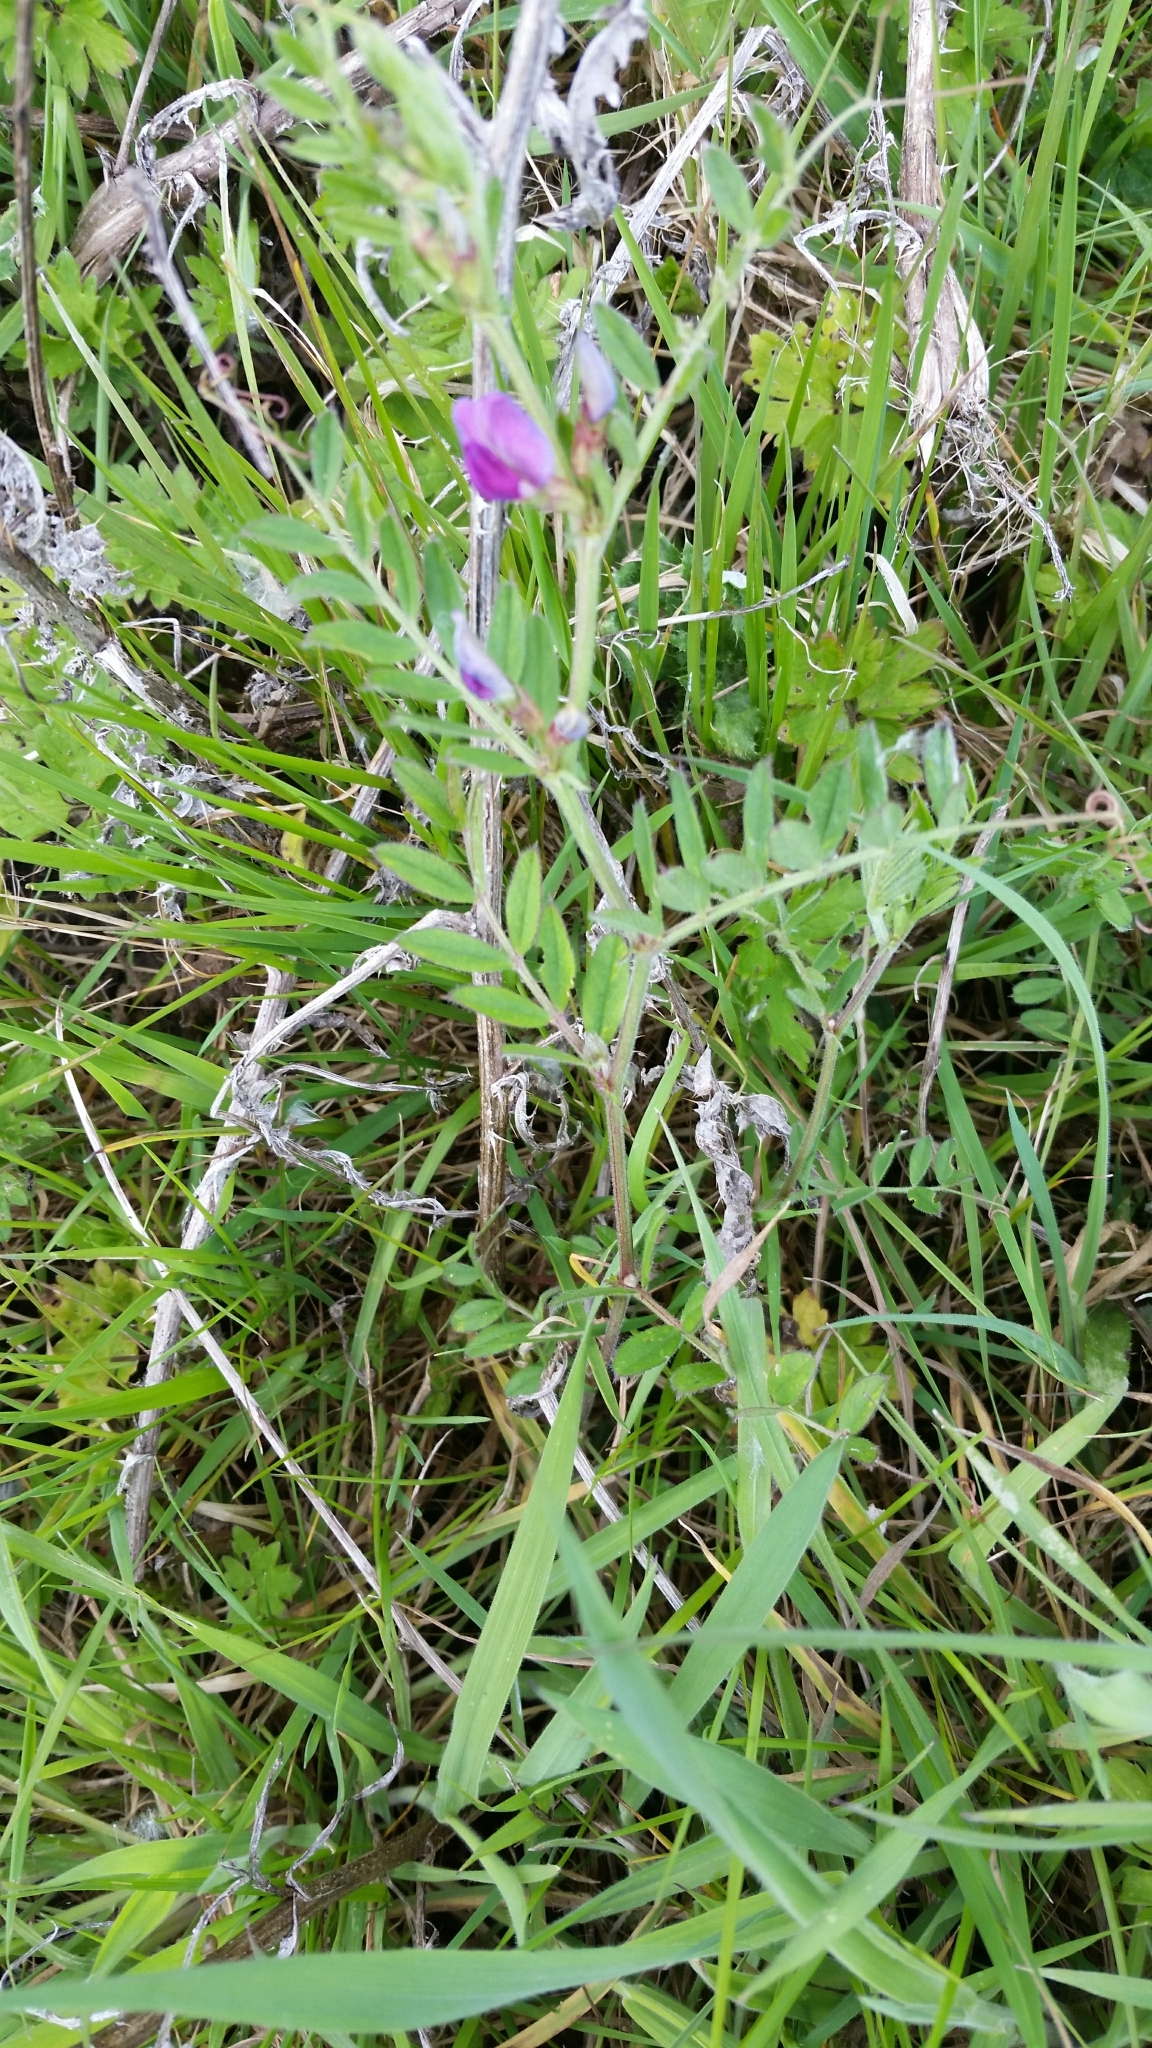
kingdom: Plantae
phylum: Tracheophyta
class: Magnoliopsida
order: Fabales
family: Fabaceae
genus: Vicia
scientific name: Vicia sativa
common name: Garden vetch
